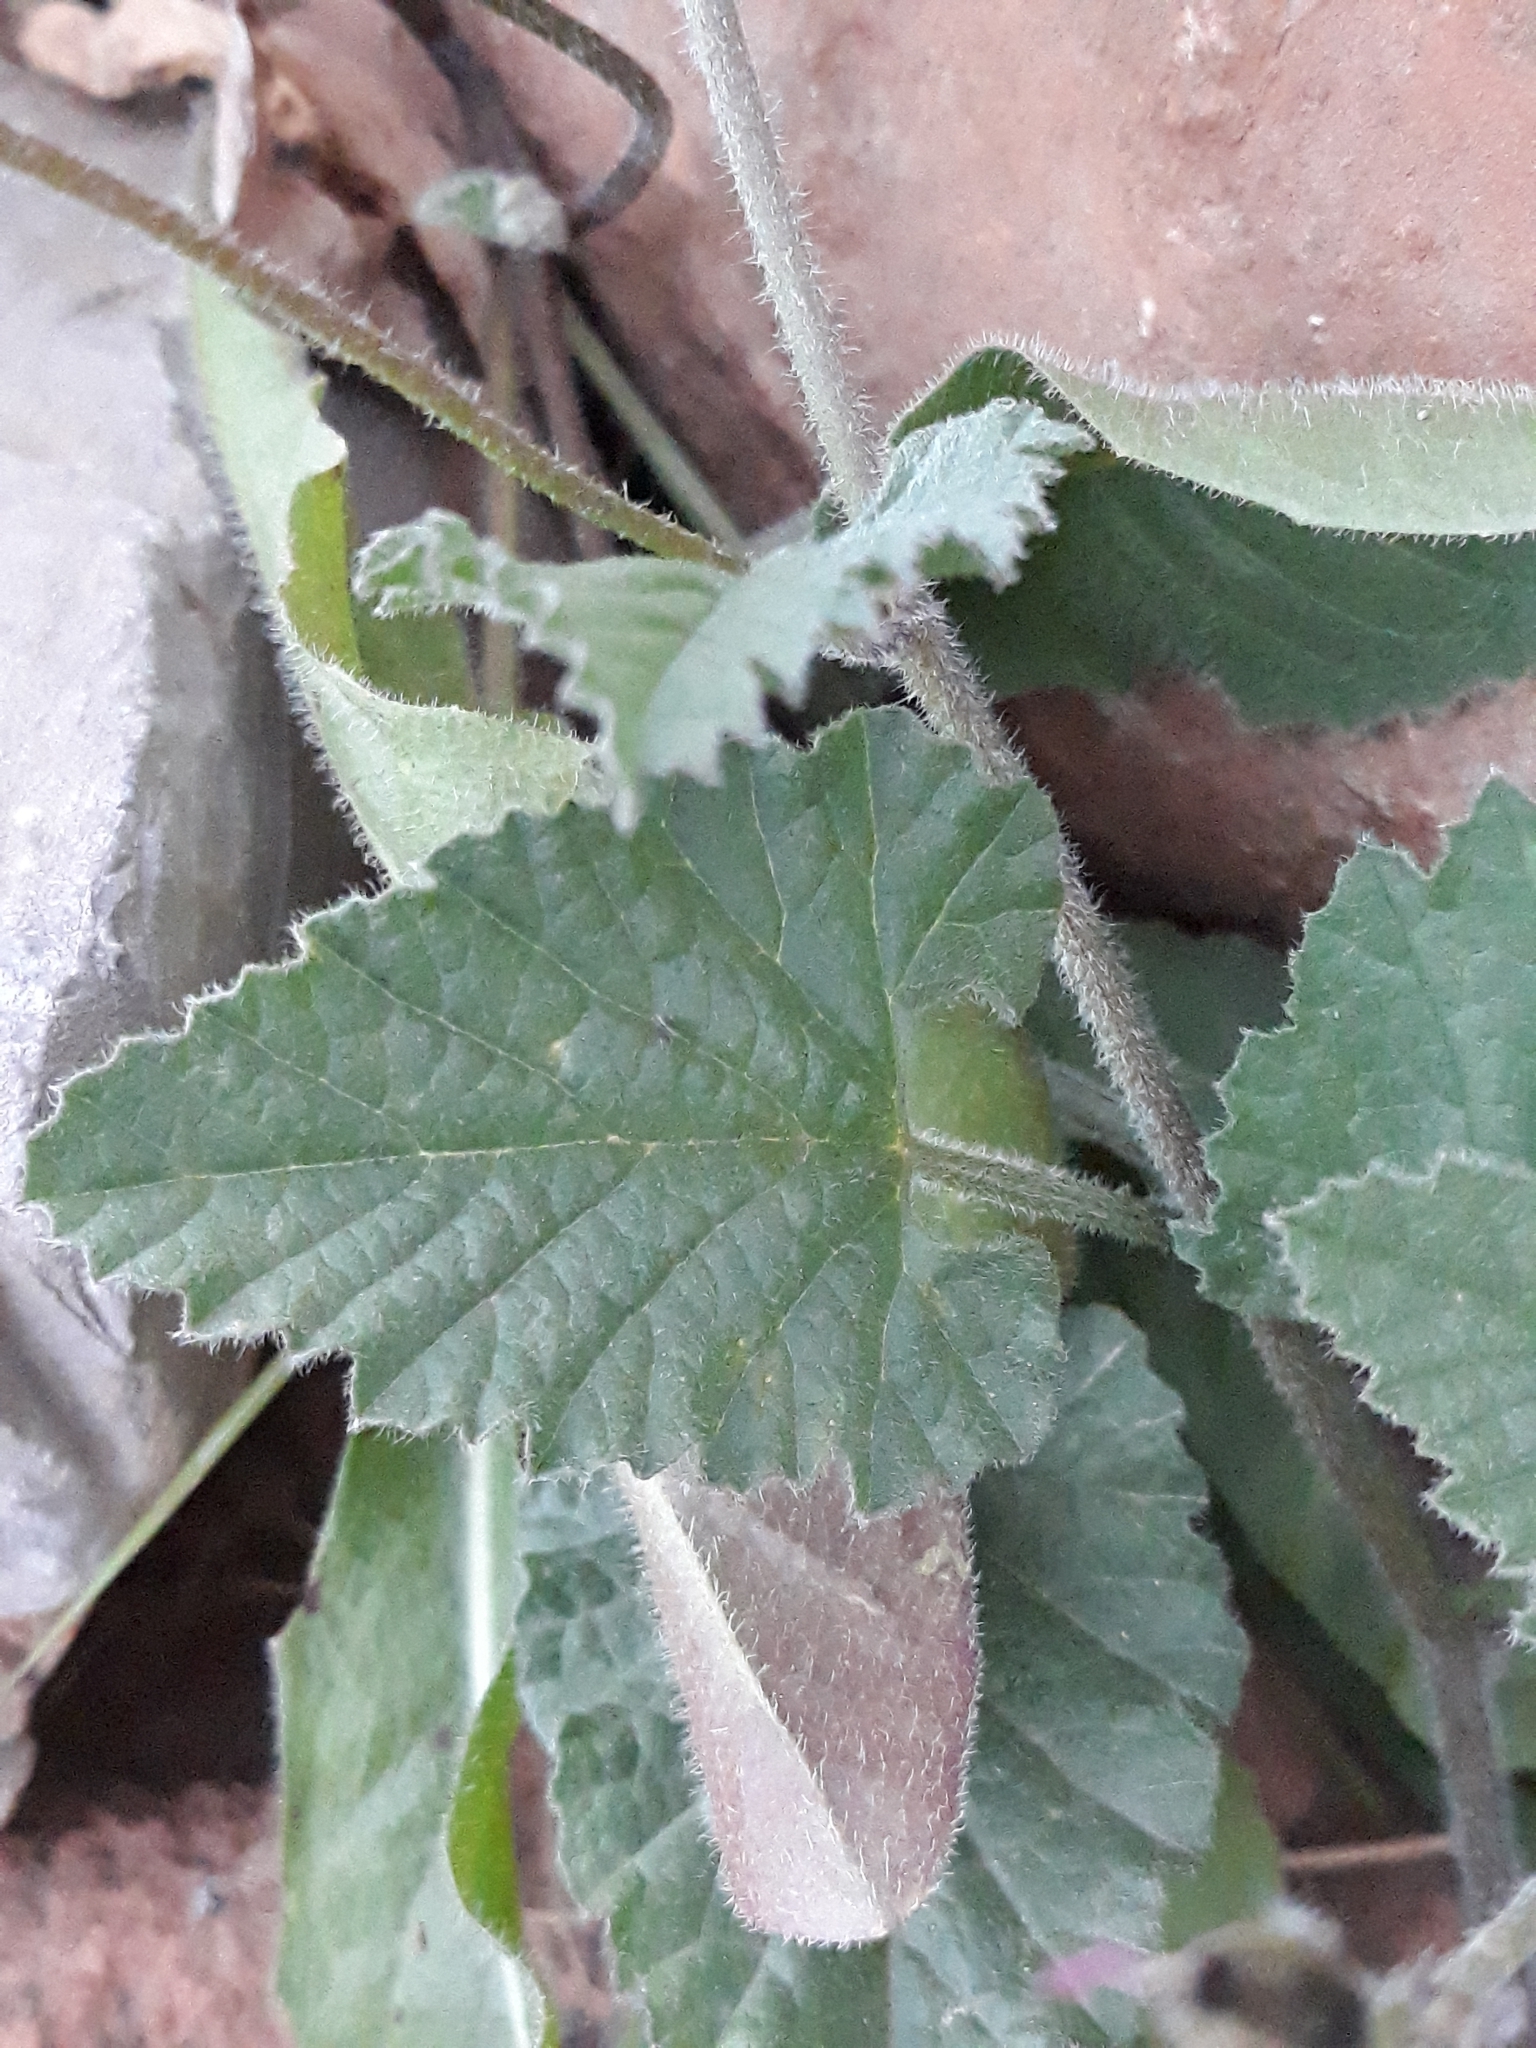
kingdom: Plantae
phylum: Tracheophyta
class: Magnoliopsida
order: Solanales
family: Convolvulaceae
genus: Convolvulus
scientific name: Convolvulus althaeoides
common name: Mallow bindweed
